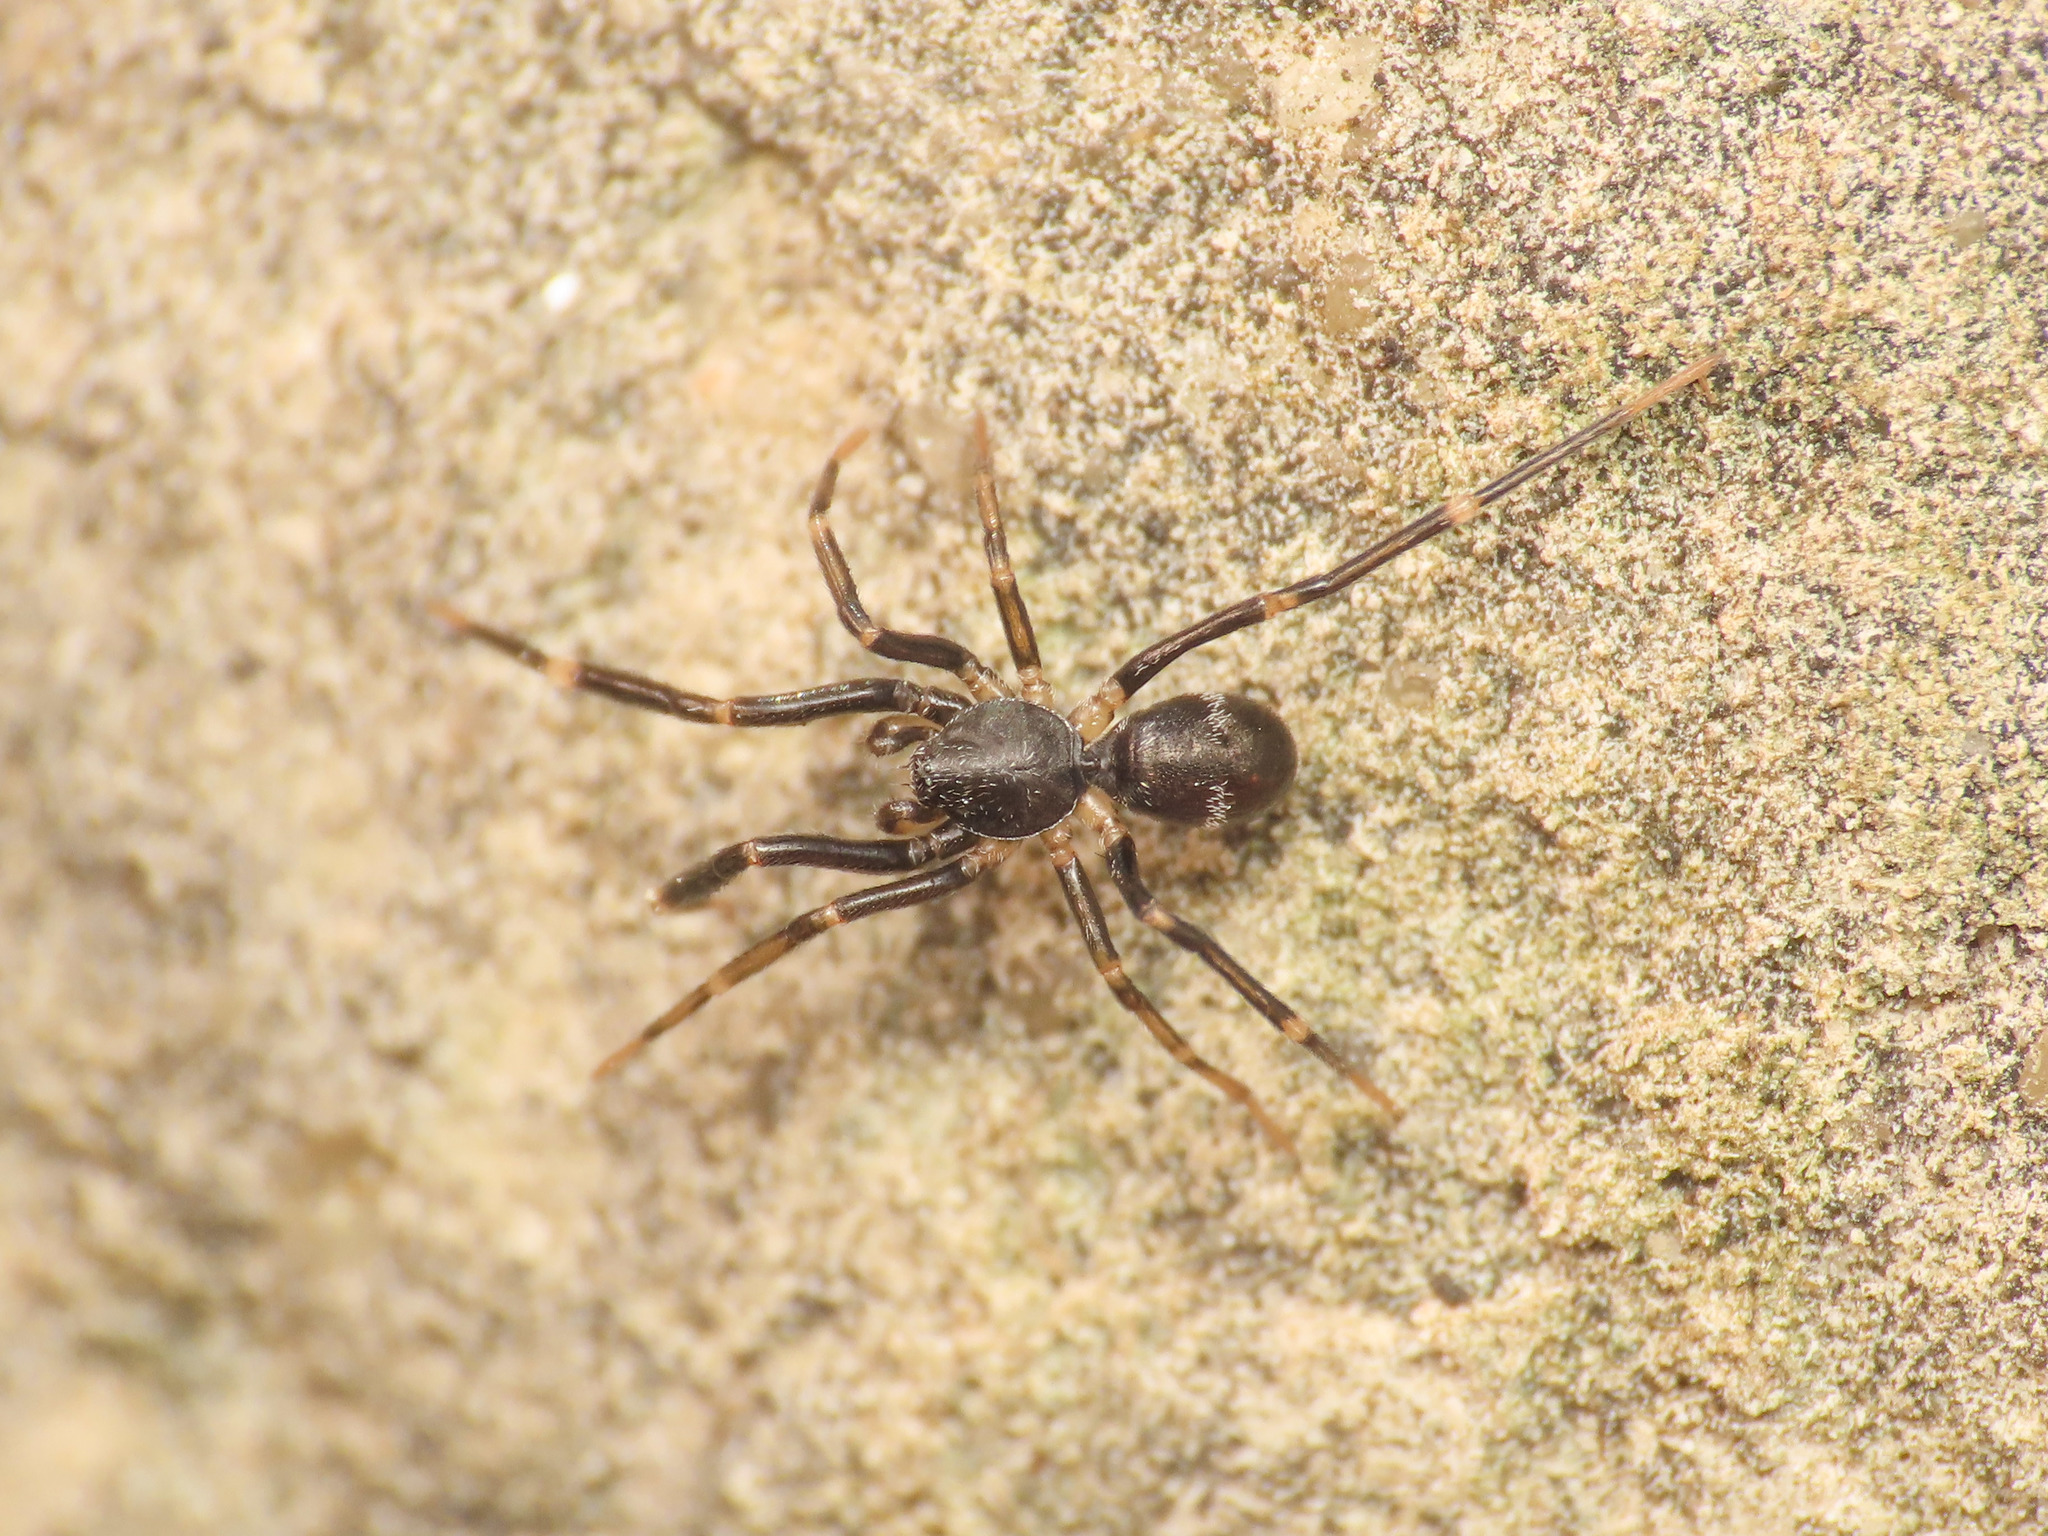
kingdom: Animalia
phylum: Arthropoda
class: Arachnida
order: Araneae
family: Phrurolithidae
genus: Liophrurillus
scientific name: Liophrurillus flavitarsis
